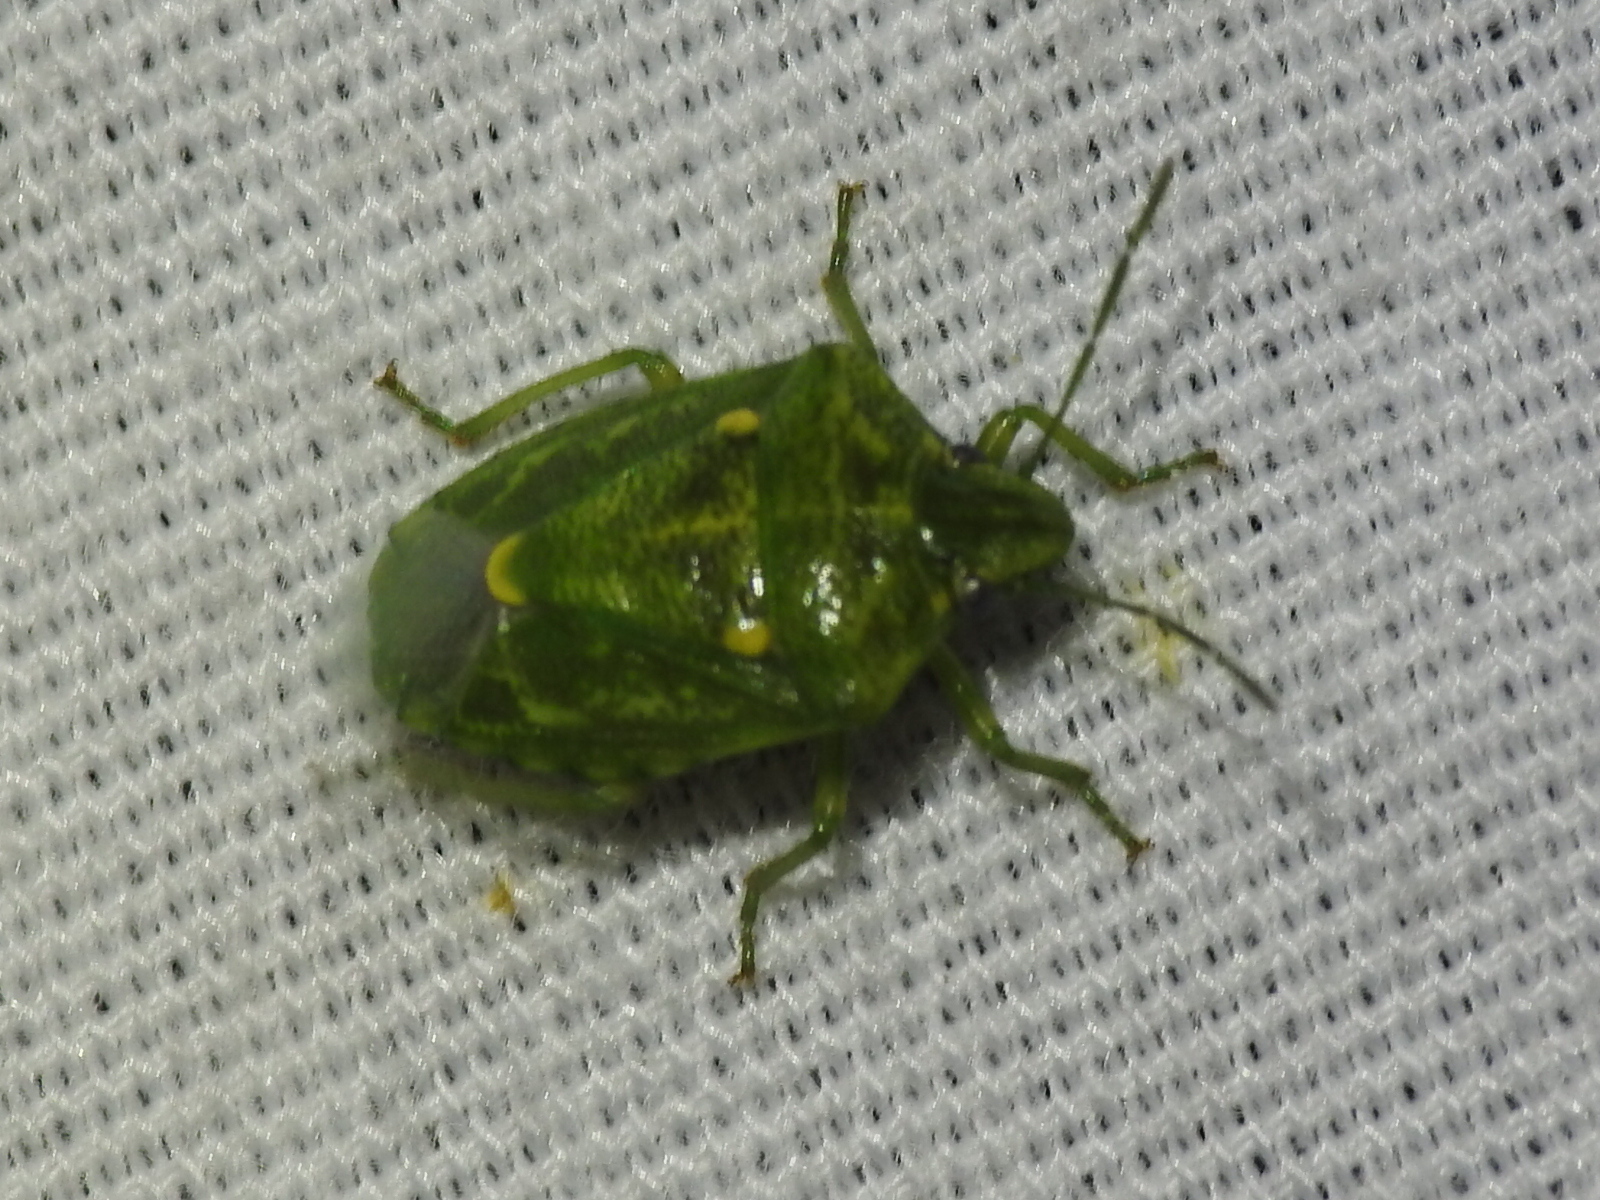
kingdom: Animalia
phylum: Arthropoda
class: Insecta
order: Hemiptera
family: Pentatomidae
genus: Banasa
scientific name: Banasa euchlora
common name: Cedar berry bug
